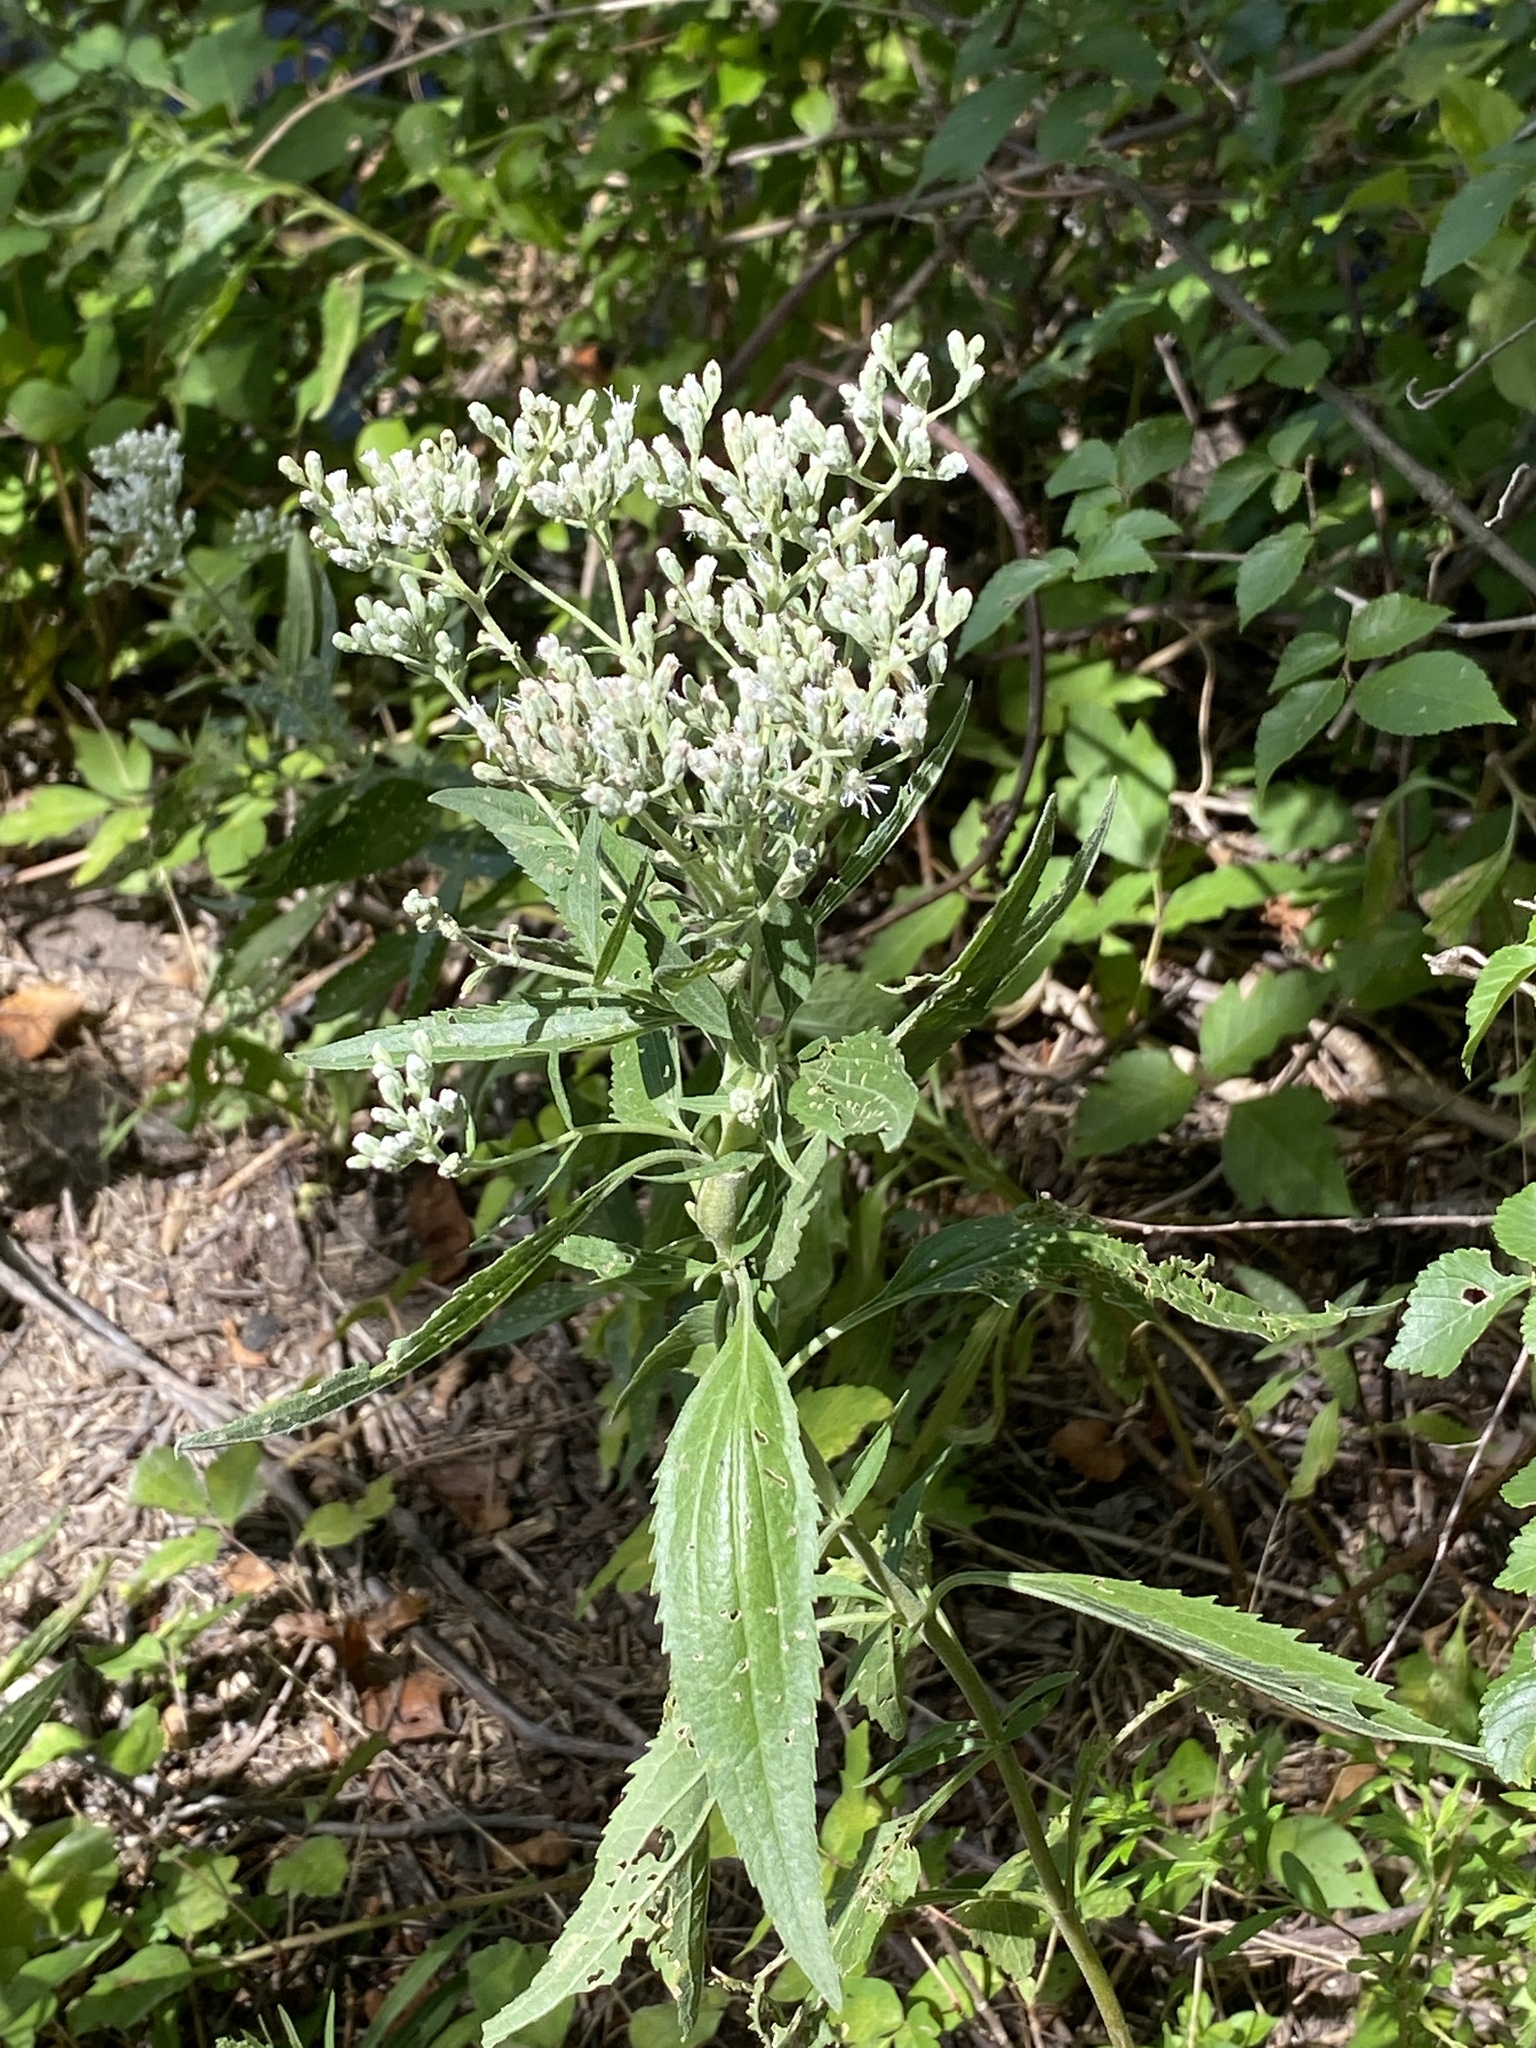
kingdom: Plantae
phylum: Tracheophyta
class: Magnoliopsida
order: Asterales
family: Asteraceae
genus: Eupatorium
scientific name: Eupatorium serotinum
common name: Late boneset
